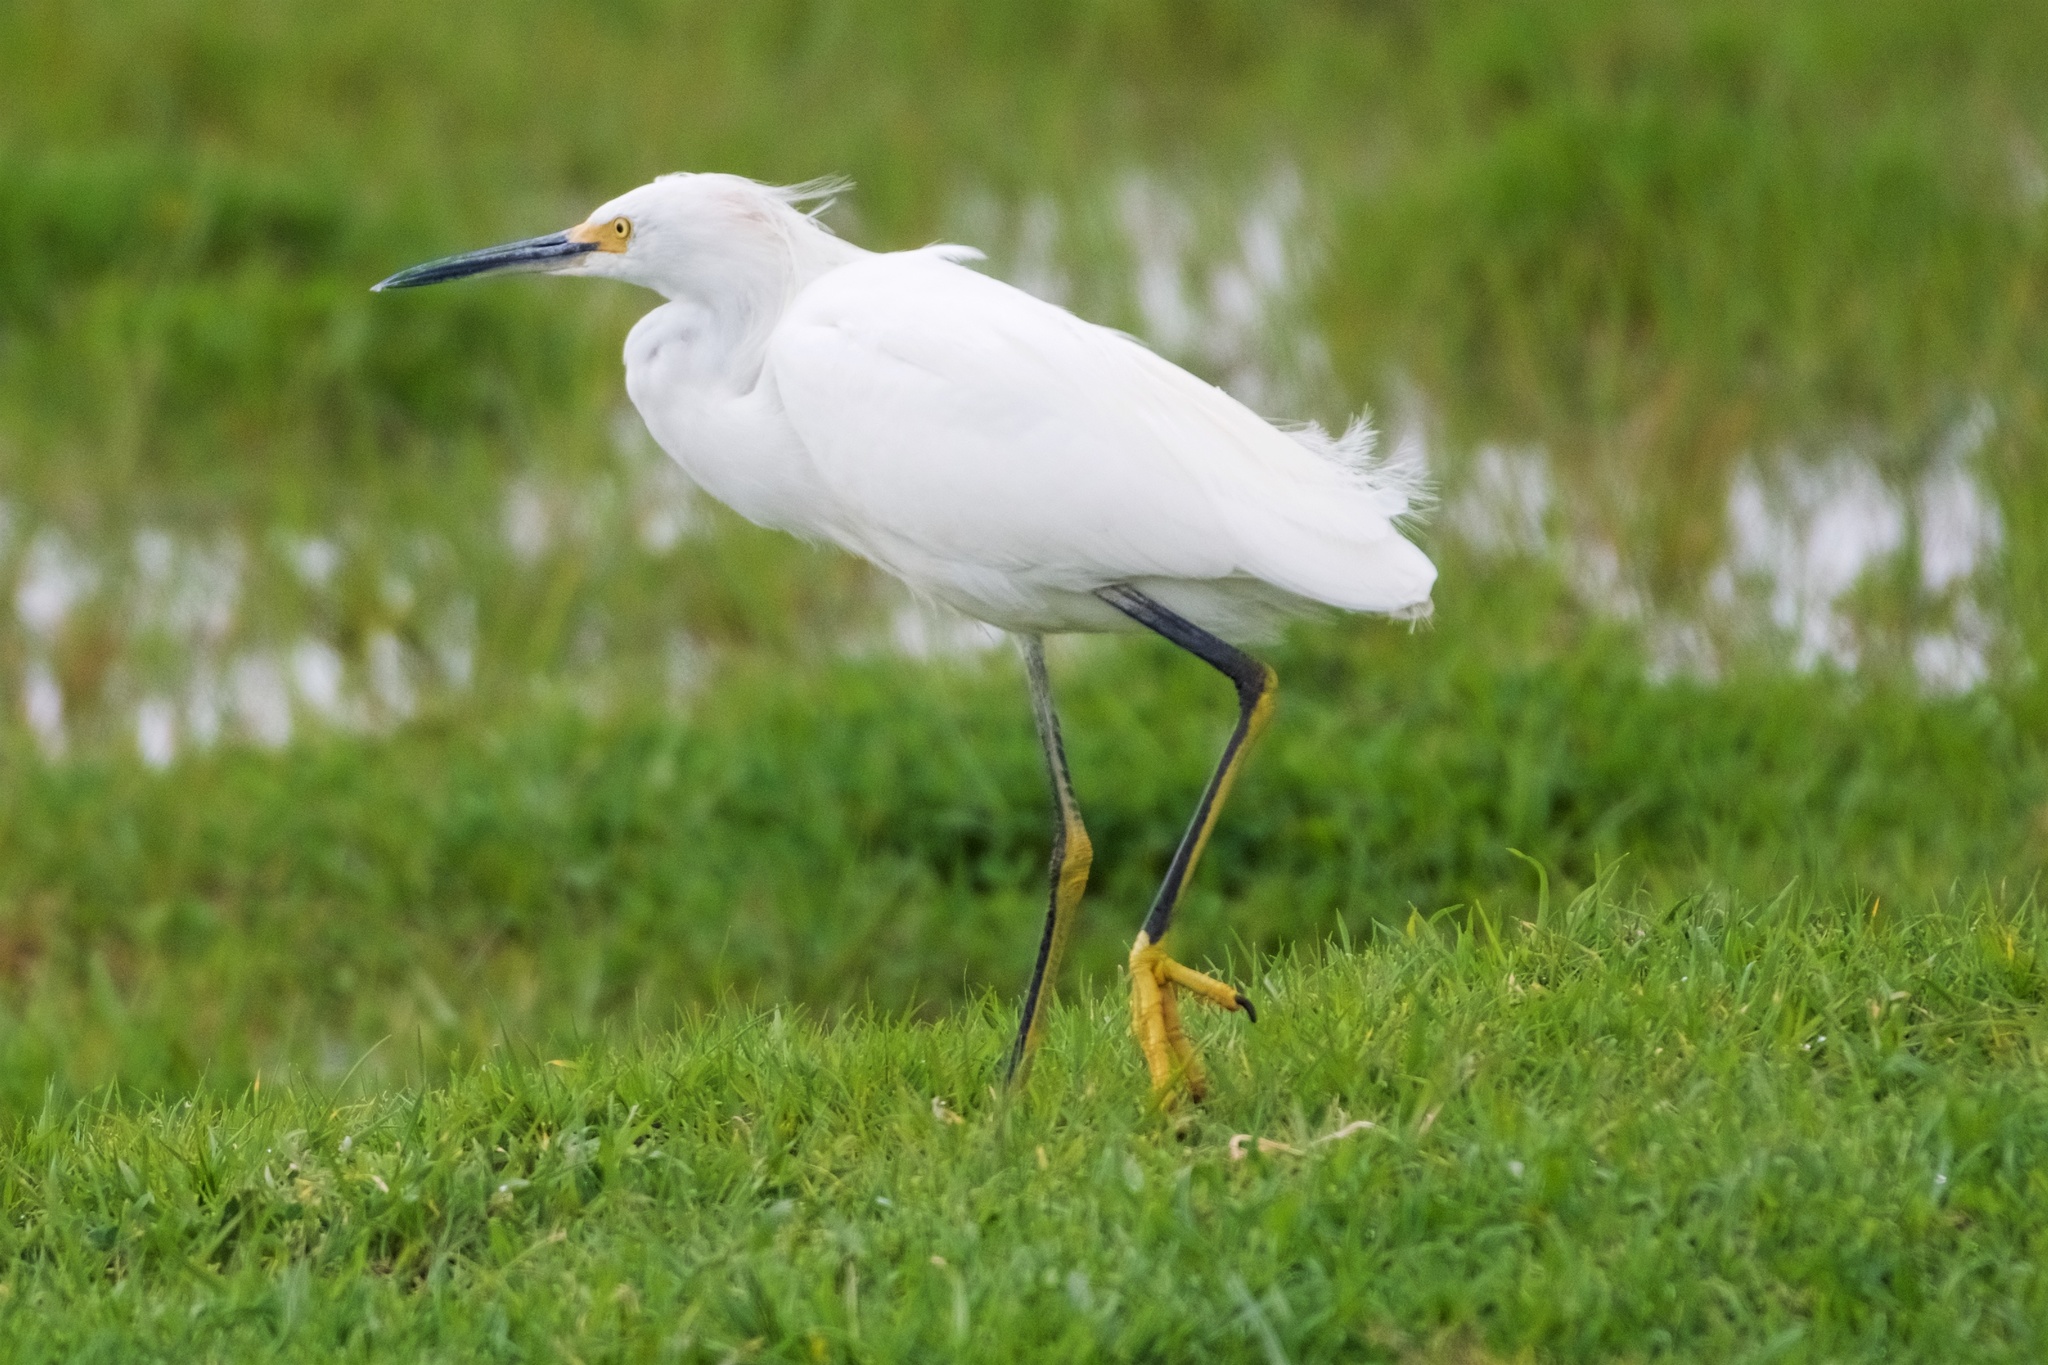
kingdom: Animalia
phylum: Chordata
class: Aves
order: Pelecaniformes
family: Ardeidae
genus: Egretta
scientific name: Egretta thula
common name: Snowy egret
